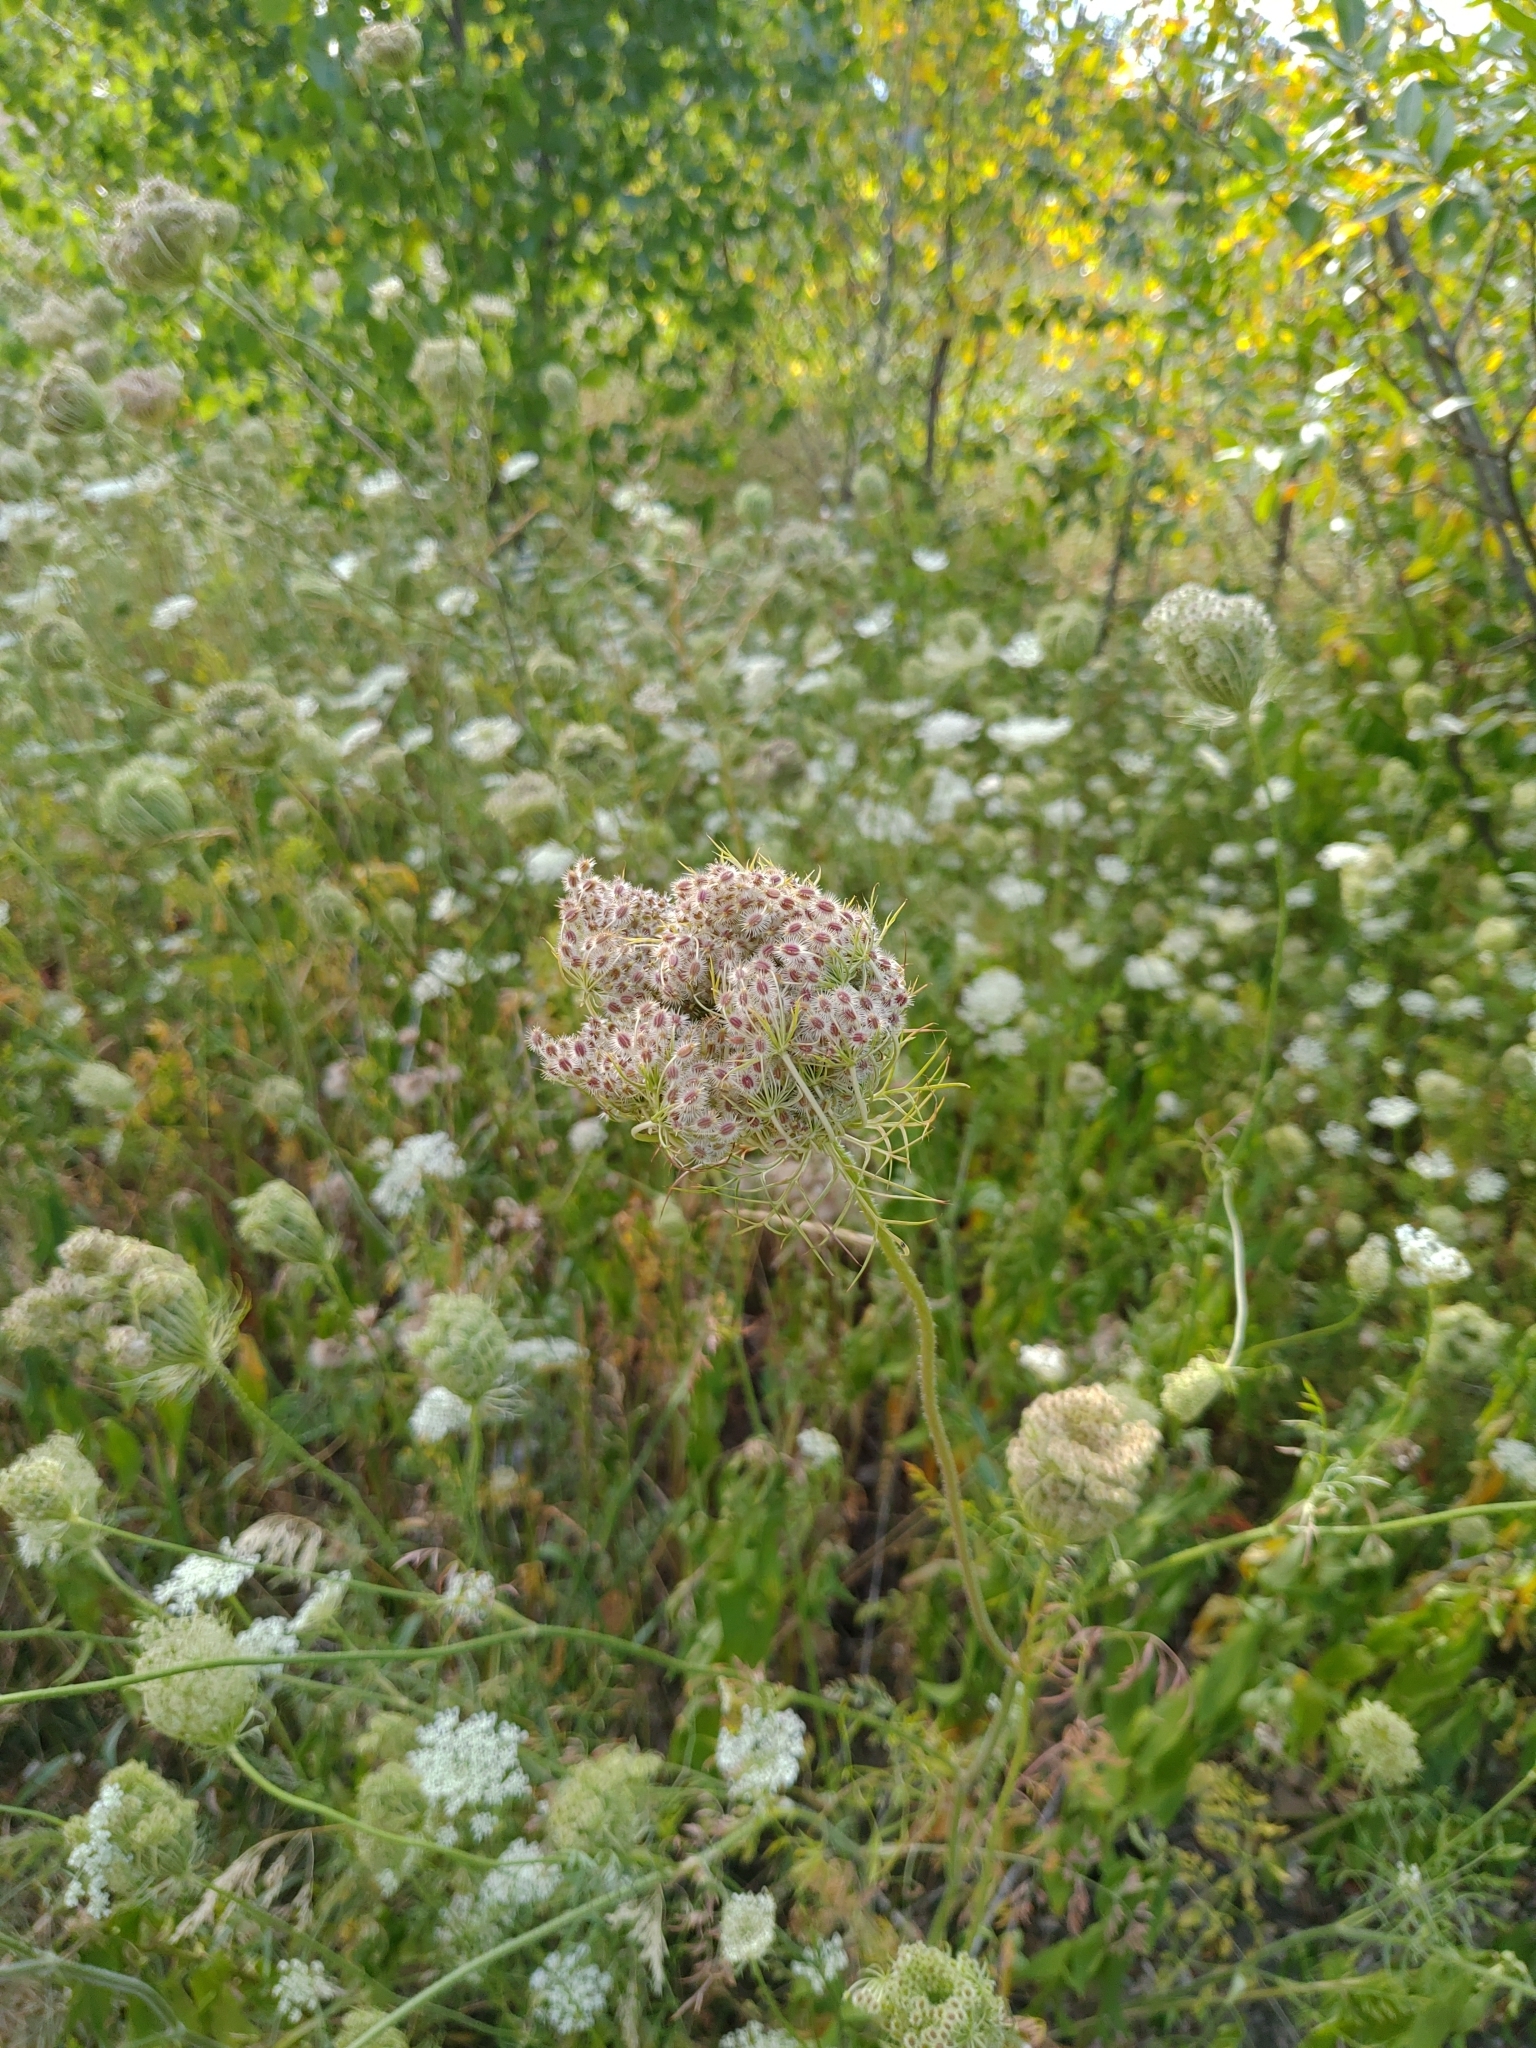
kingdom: Plantae
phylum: Tracheophyta
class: Magnoliopsida
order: Apiales
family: Apiaceae
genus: Daucus
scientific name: Daucus carota
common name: Wild carrot
